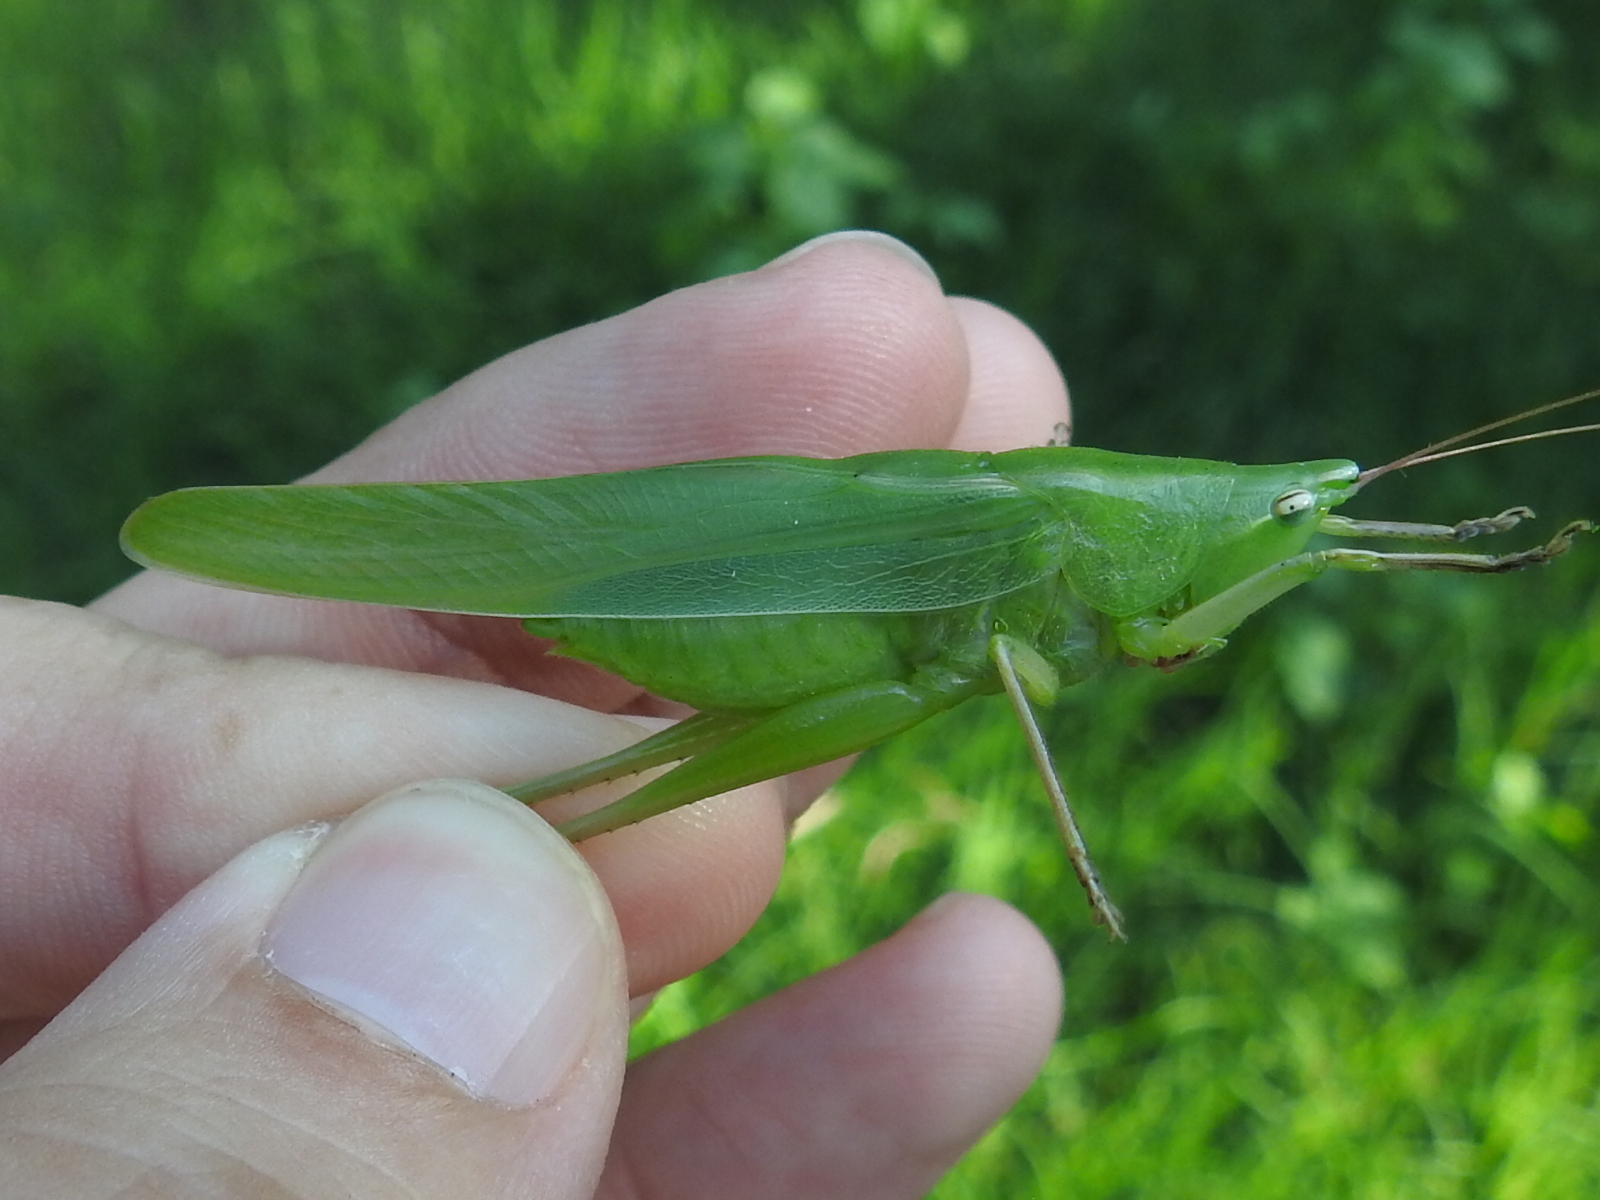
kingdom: Animalia
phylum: Arthropoda
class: Insecta
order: Orthoptera
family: Tettigoniidae
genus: Neoconocephalus
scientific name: Neoconocephalus triops
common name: Broad-tipped conehead
